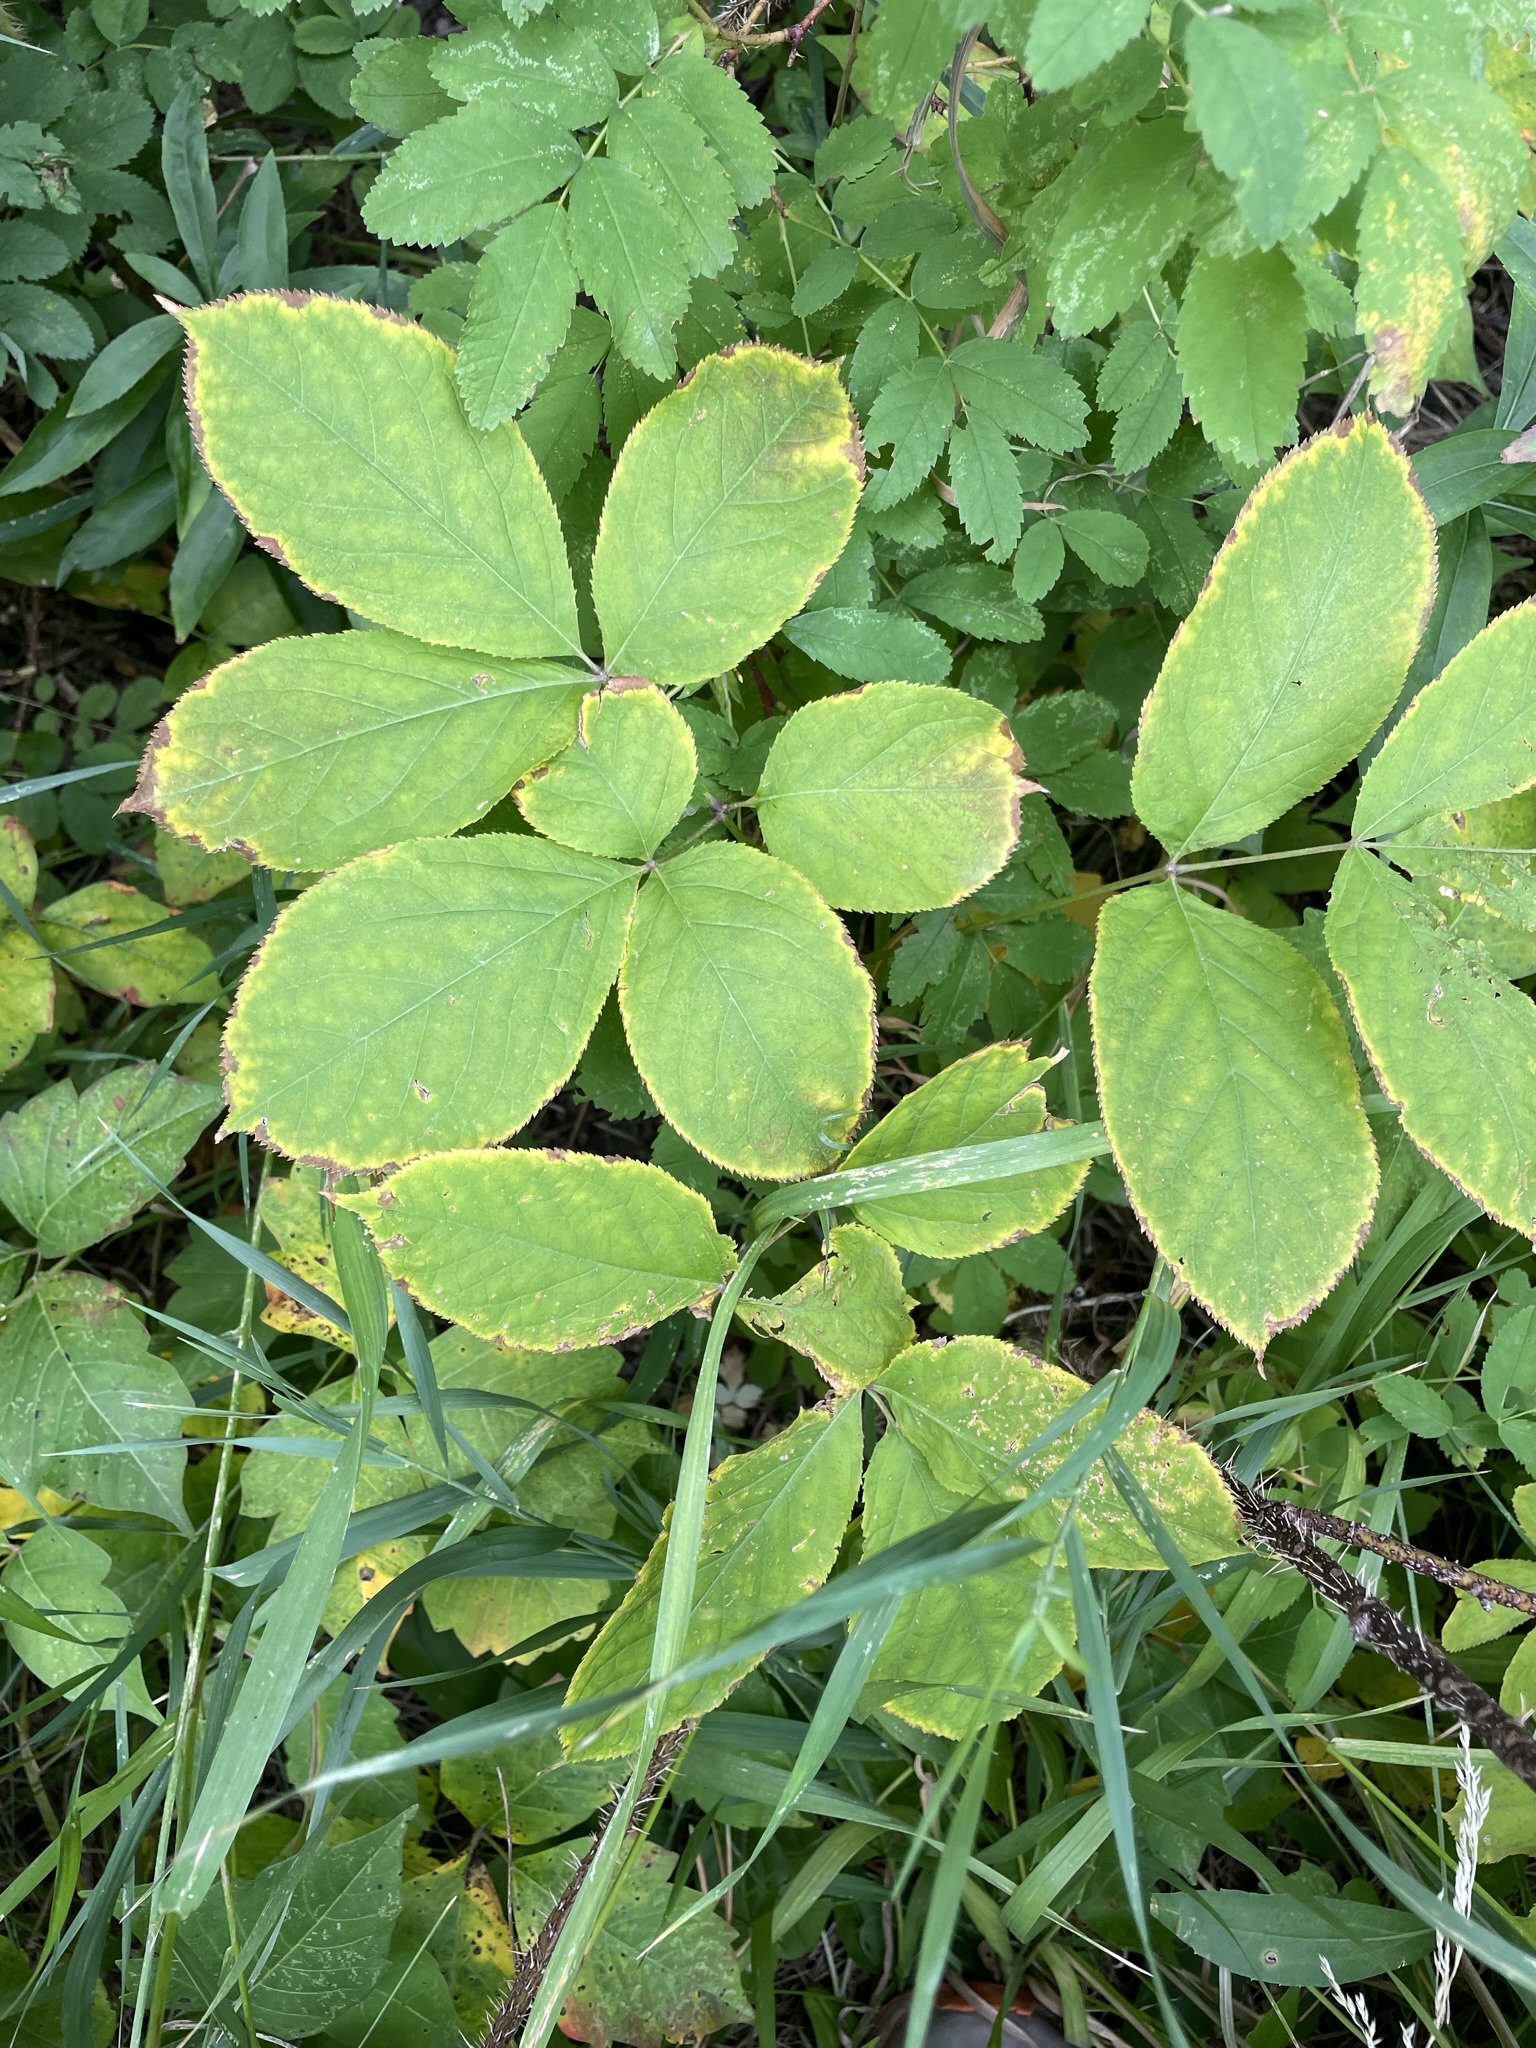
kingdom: Plantae
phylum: Tracheophyta
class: Magnoliopsida
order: Apiales
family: Araliaceae
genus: Aralia
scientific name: Aralia nudicaulis
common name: Wild sarsaparilla
